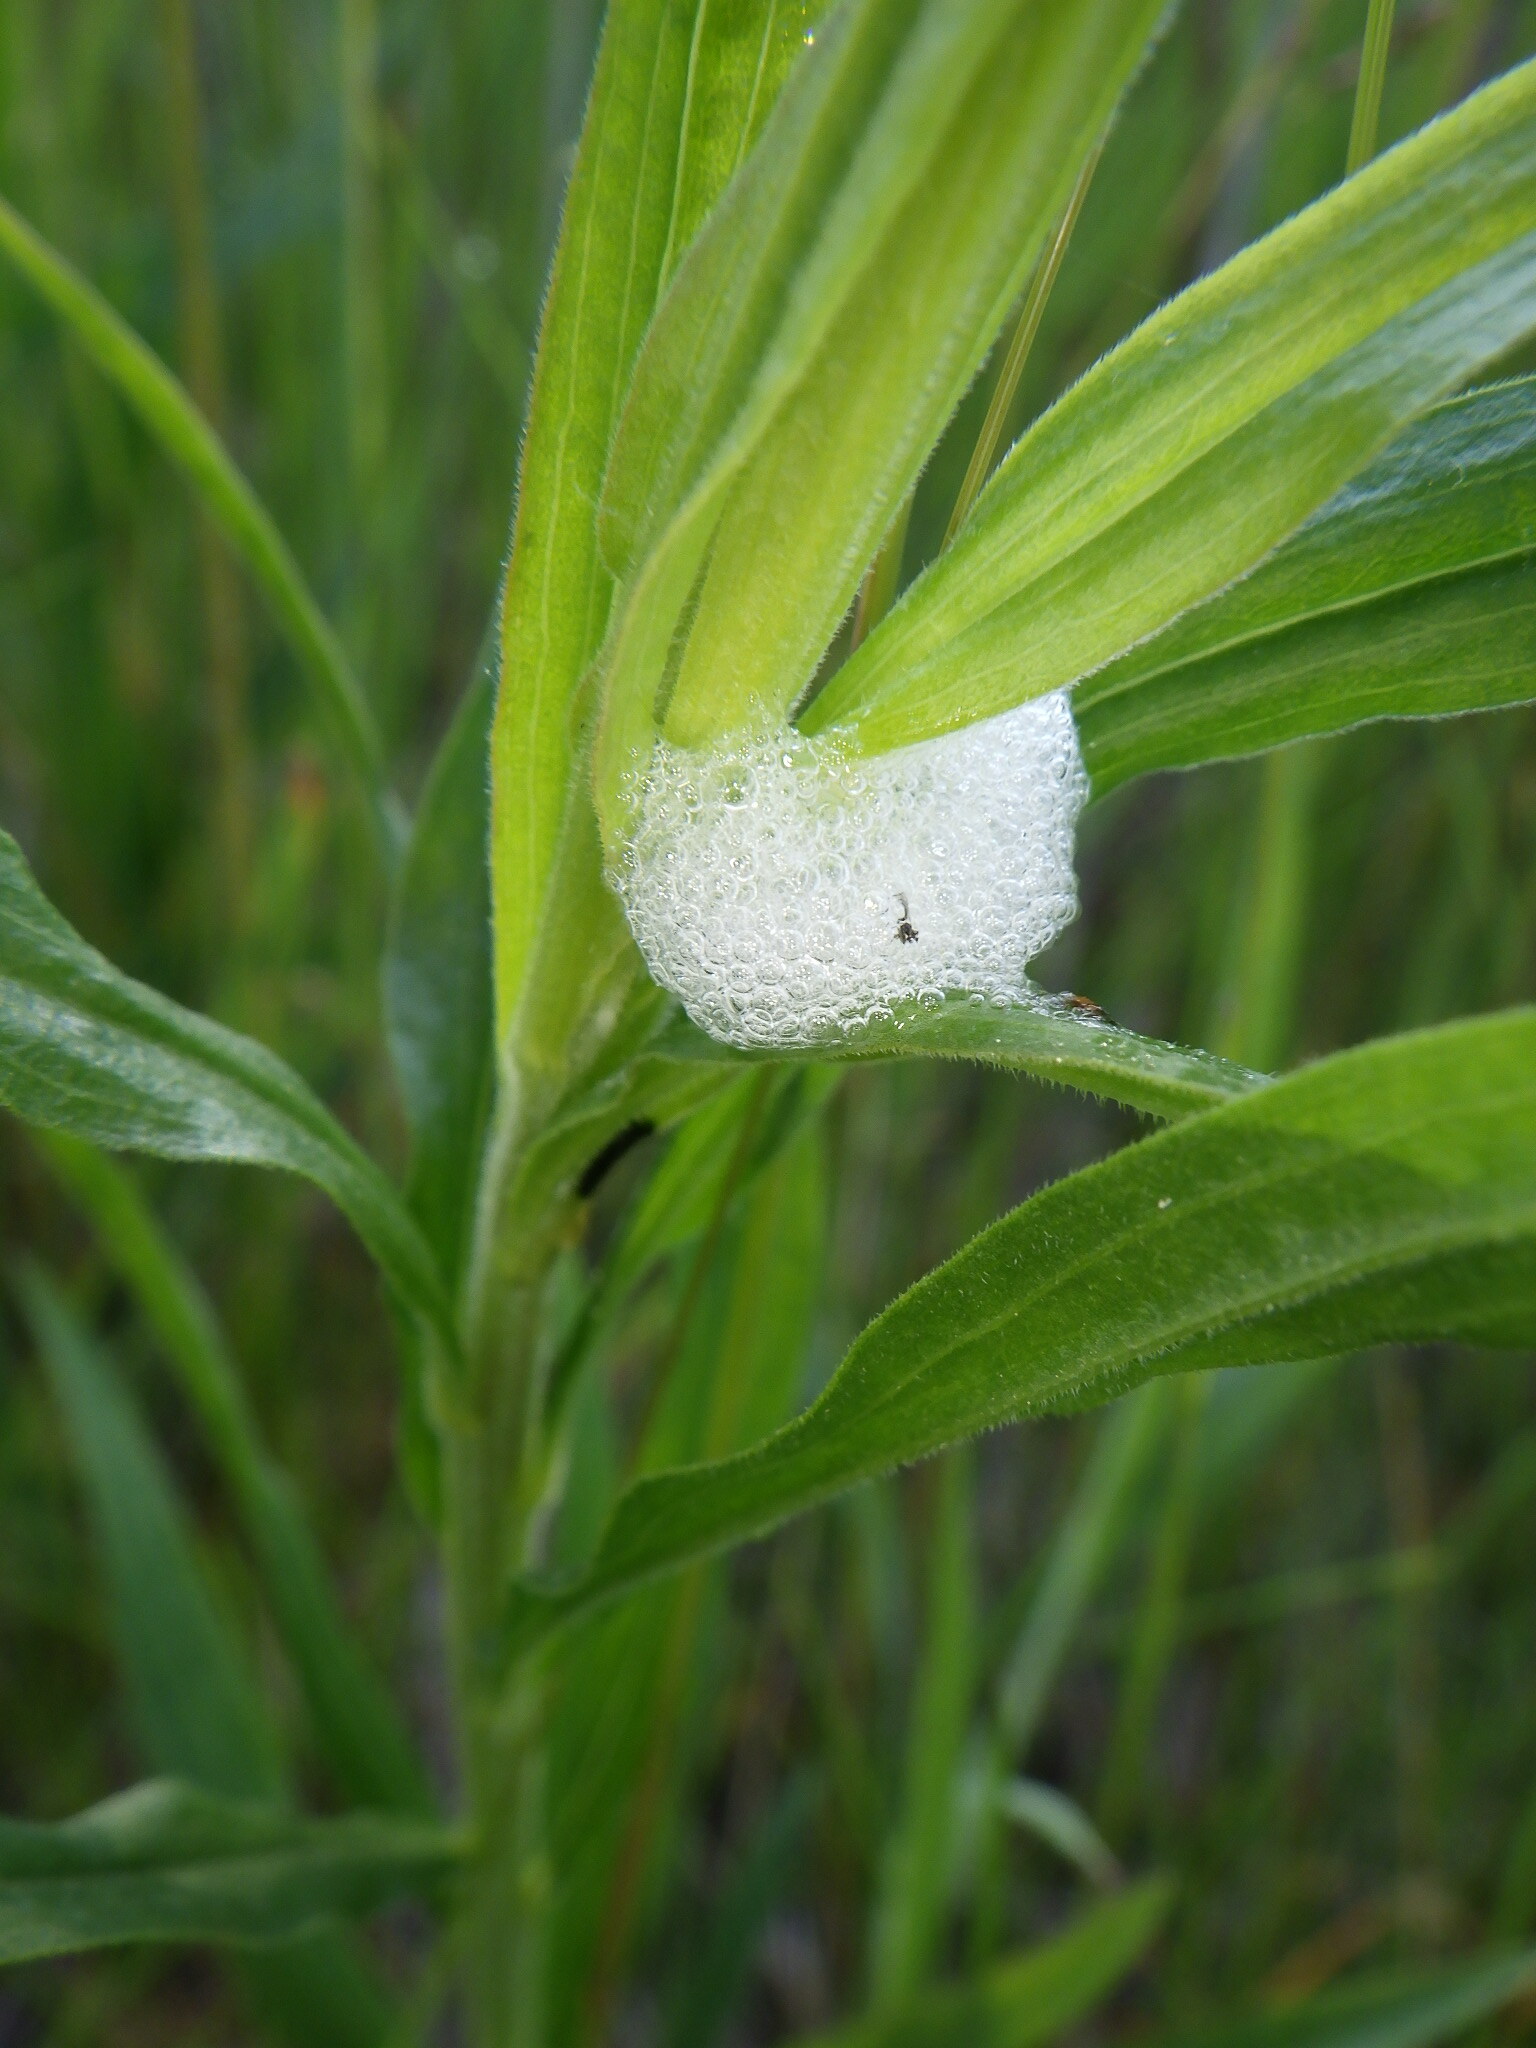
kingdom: Animalia
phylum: Arthropoda
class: Insecta
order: Hemiptera
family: Aphrophoridae
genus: Philaenus
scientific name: Philaenus spumarius
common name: Meadow spittlebug
